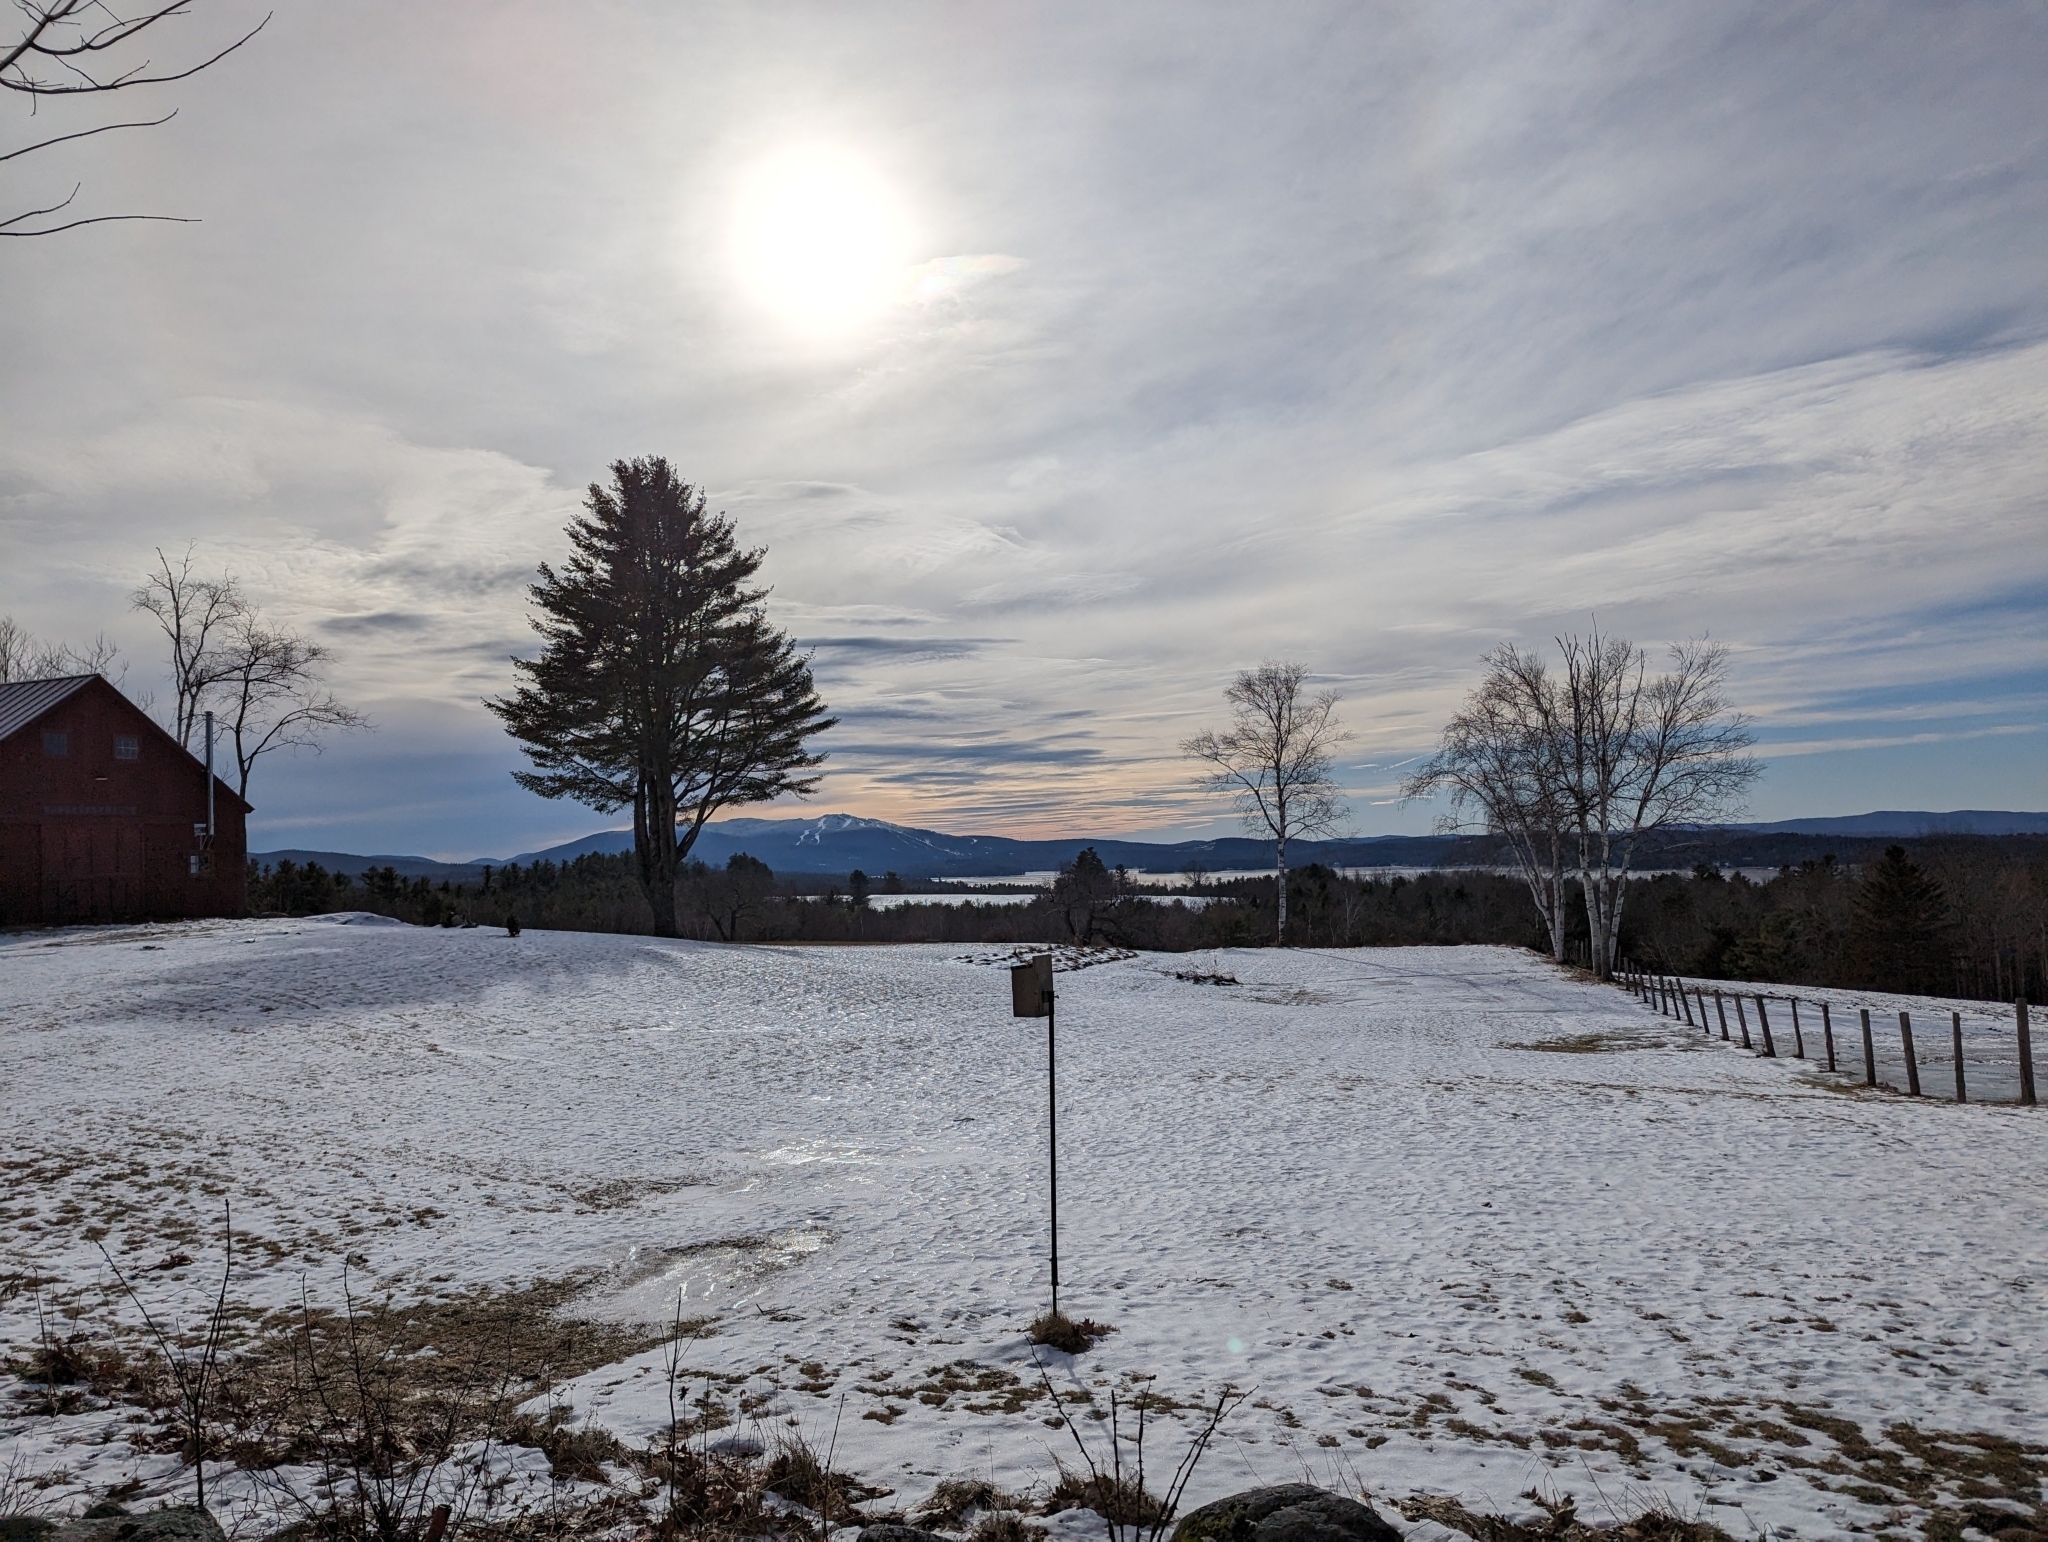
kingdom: Plantae
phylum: Tracheophyta
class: Pinopsida
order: Pinales
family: Pinaceae
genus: Pinus
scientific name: Pinus strobus
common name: Weymouth pine
